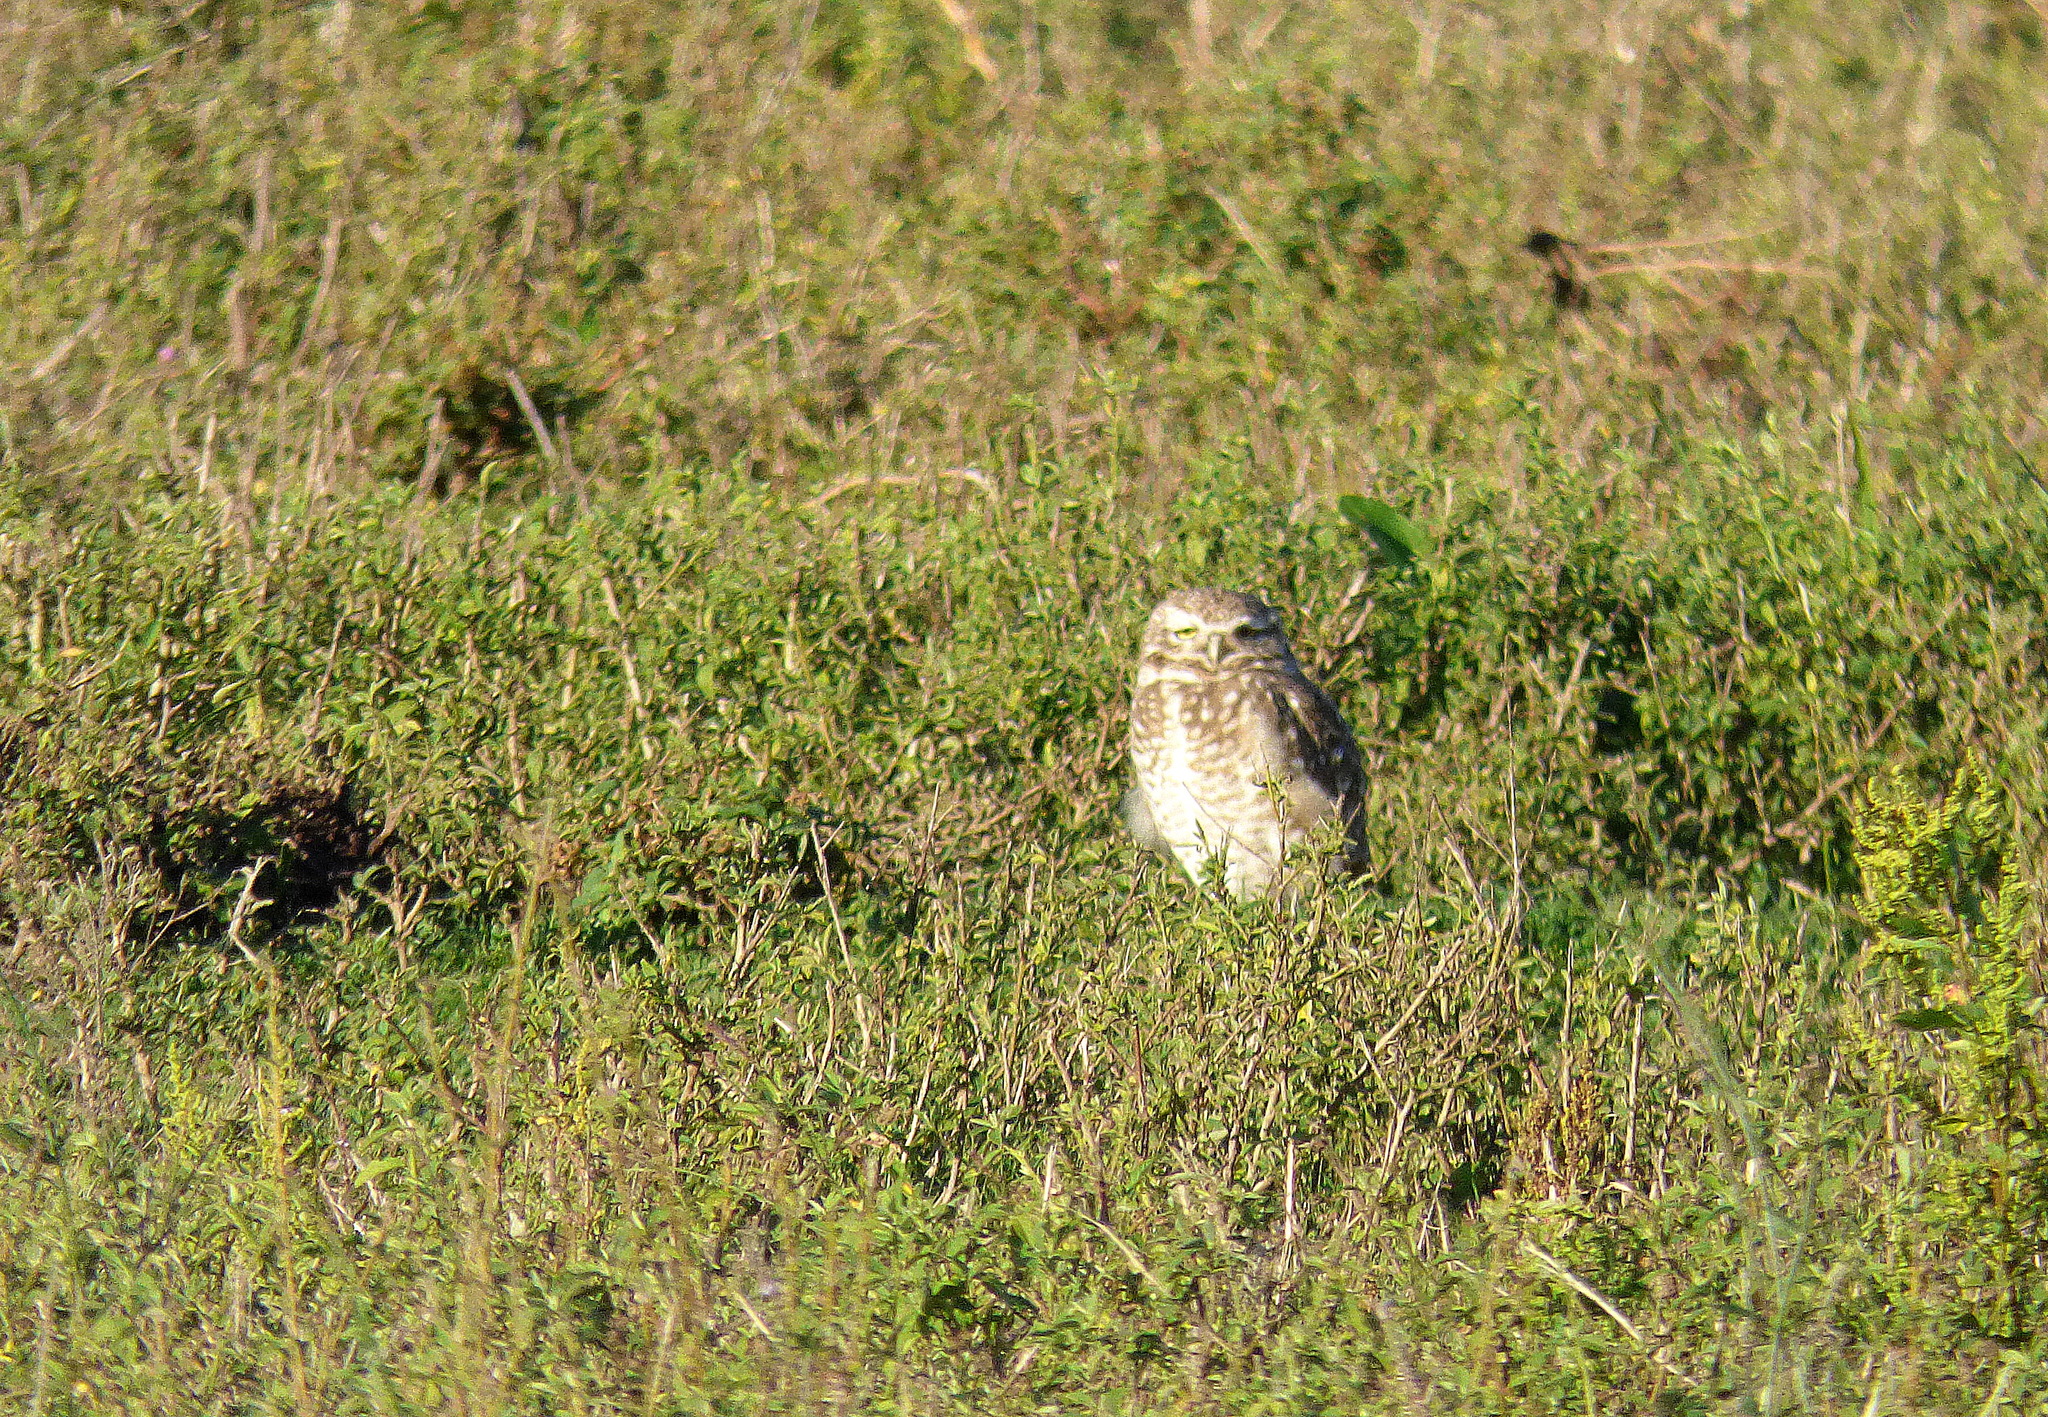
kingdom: Animalia
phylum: Chordata
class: Aves
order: Strigiformes
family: Strigidae
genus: Athene
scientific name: Athene cunicularia
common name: Burrowing owl
